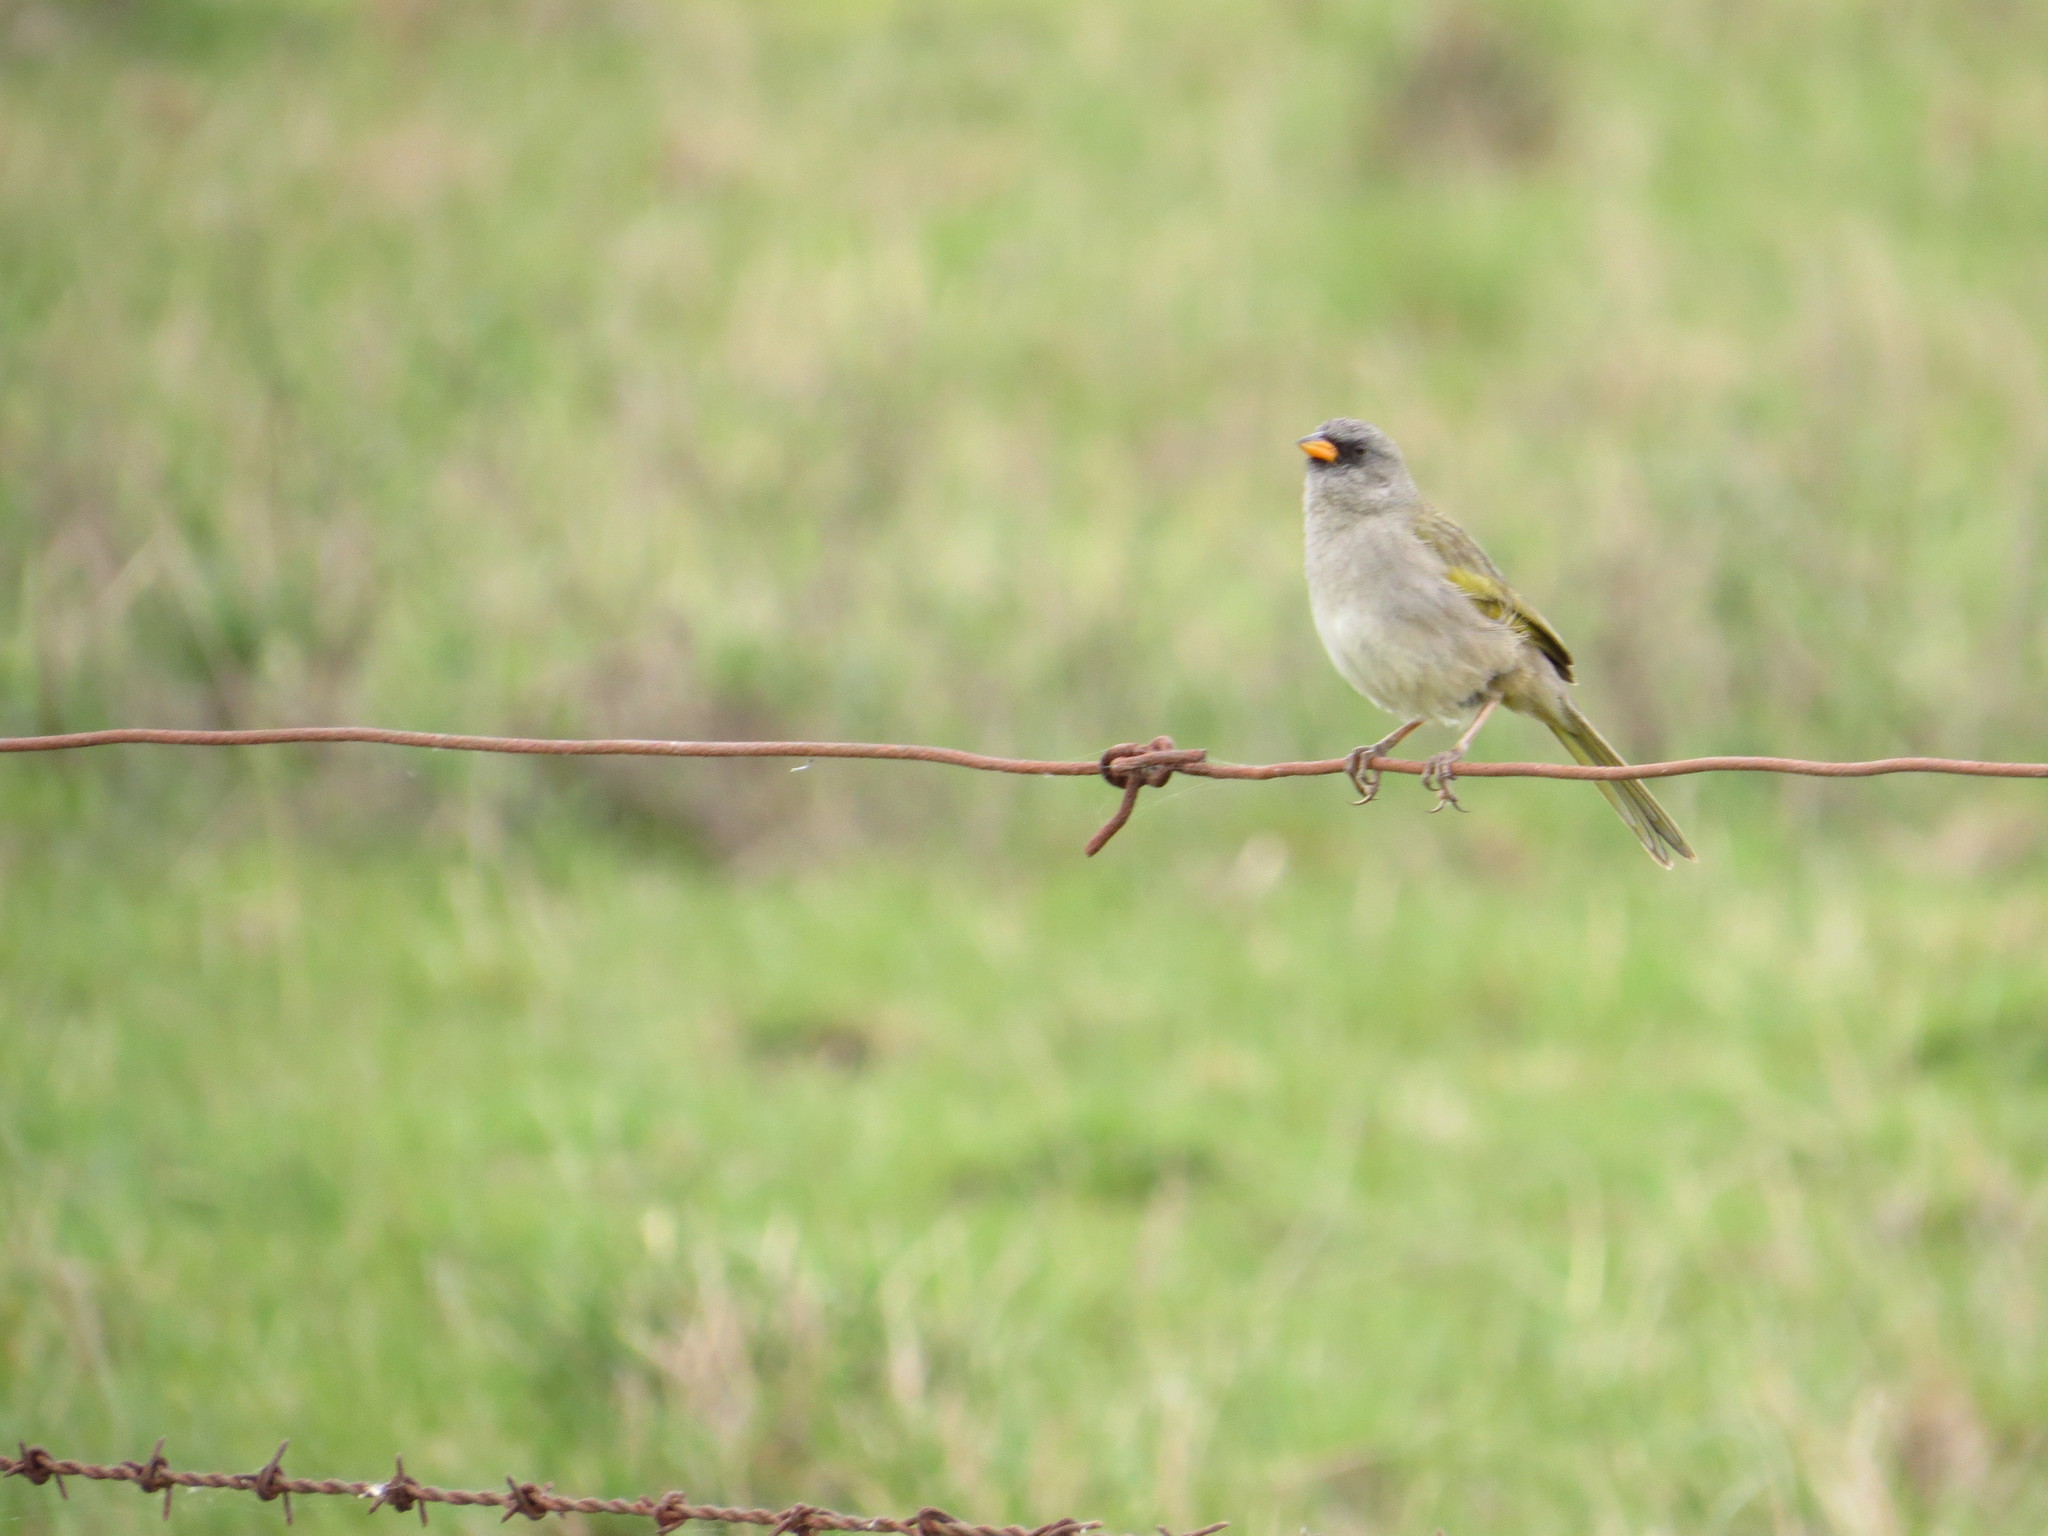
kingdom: Animalia
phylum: Chordata
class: Aves
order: Passeriformes
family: Thraupidae
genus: Embernagra
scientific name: Embernagra platensis
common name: Pampa finch
